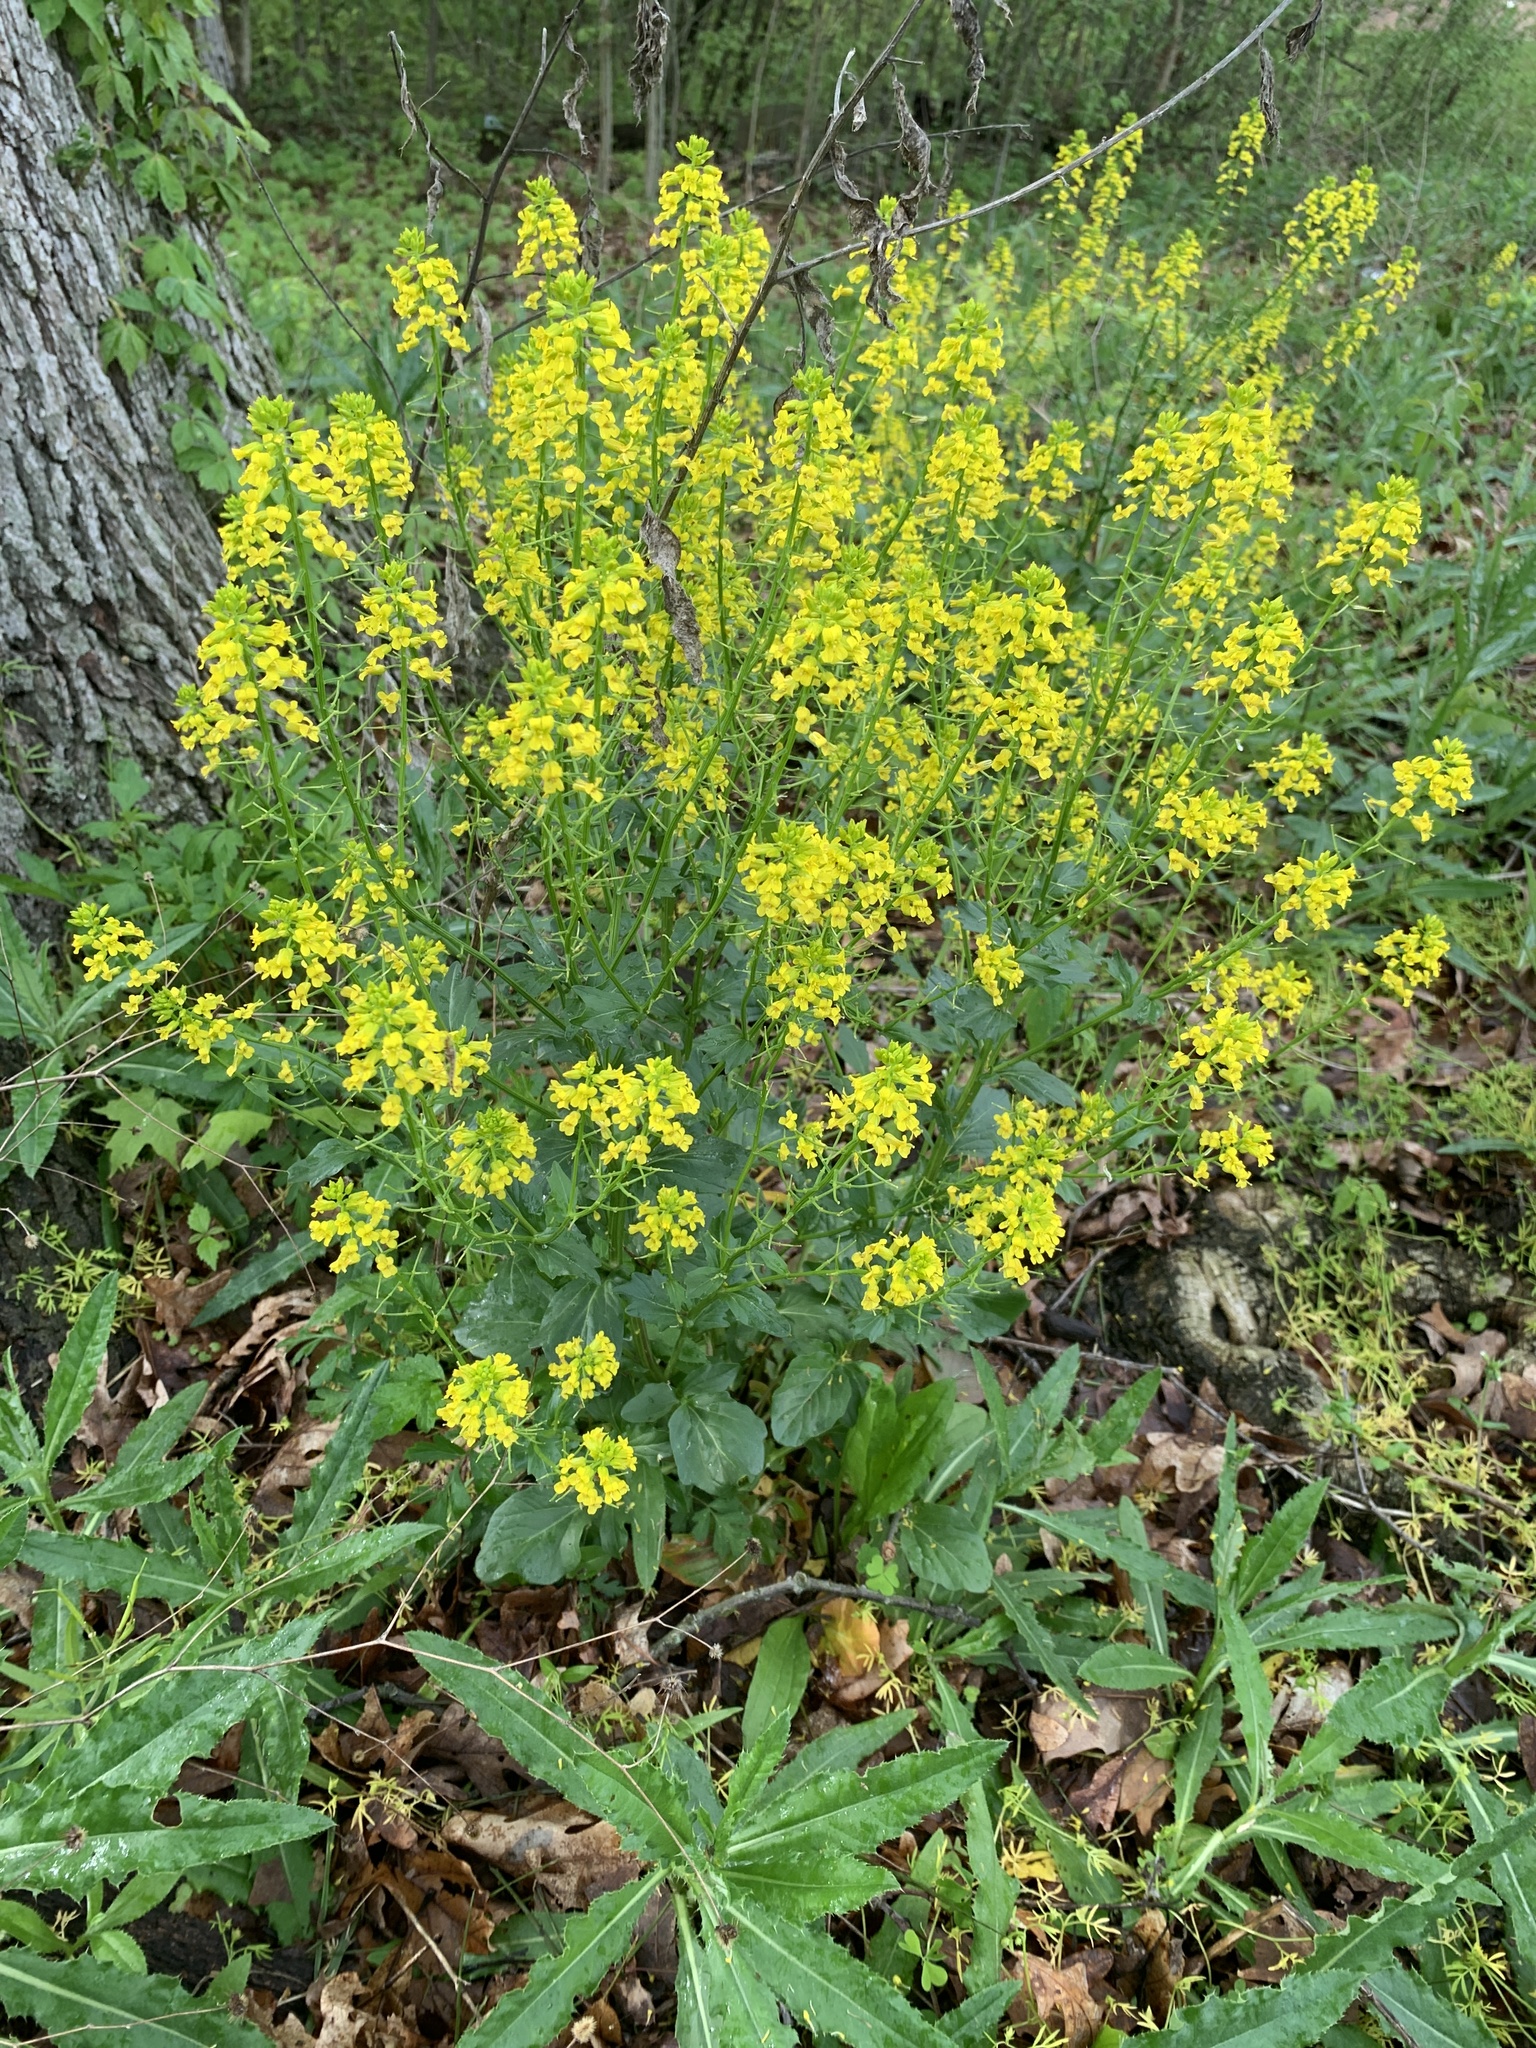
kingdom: Plantae
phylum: Tracheophyta
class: Magnoliopsida
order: Brassicales
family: Brassicaceae
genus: Barbarea
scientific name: Barbarea vulgaris
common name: Cressy-greens
